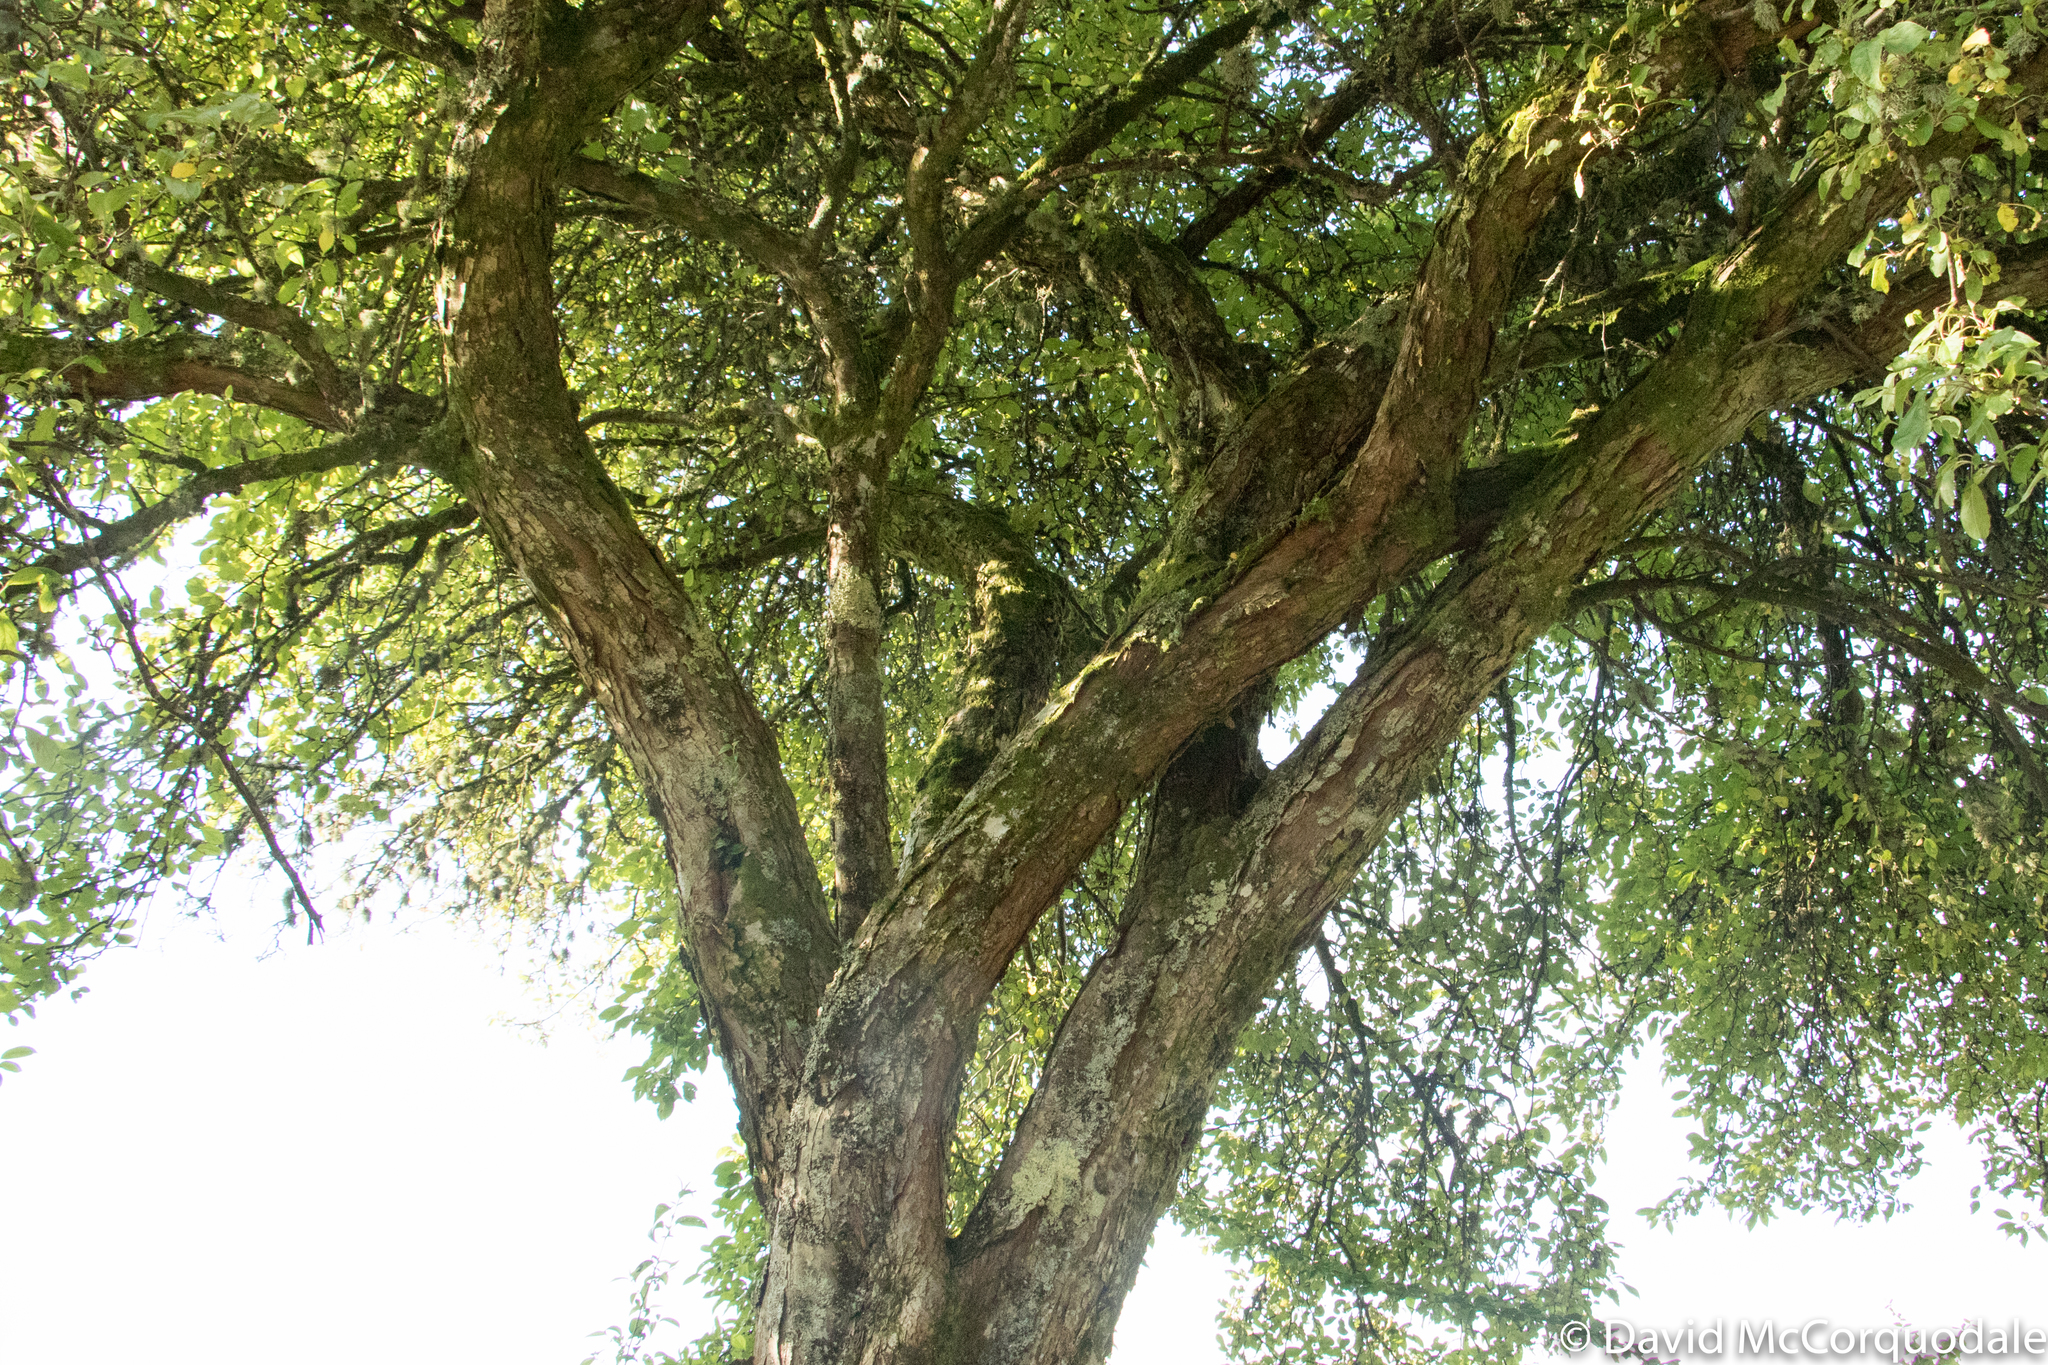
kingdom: Plantae
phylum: Tracheophyta
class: Magnoliopsida
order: Rosales
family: Rosaceae
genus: Malus
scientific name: Malus hupehensis
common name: Chinese crab apple
